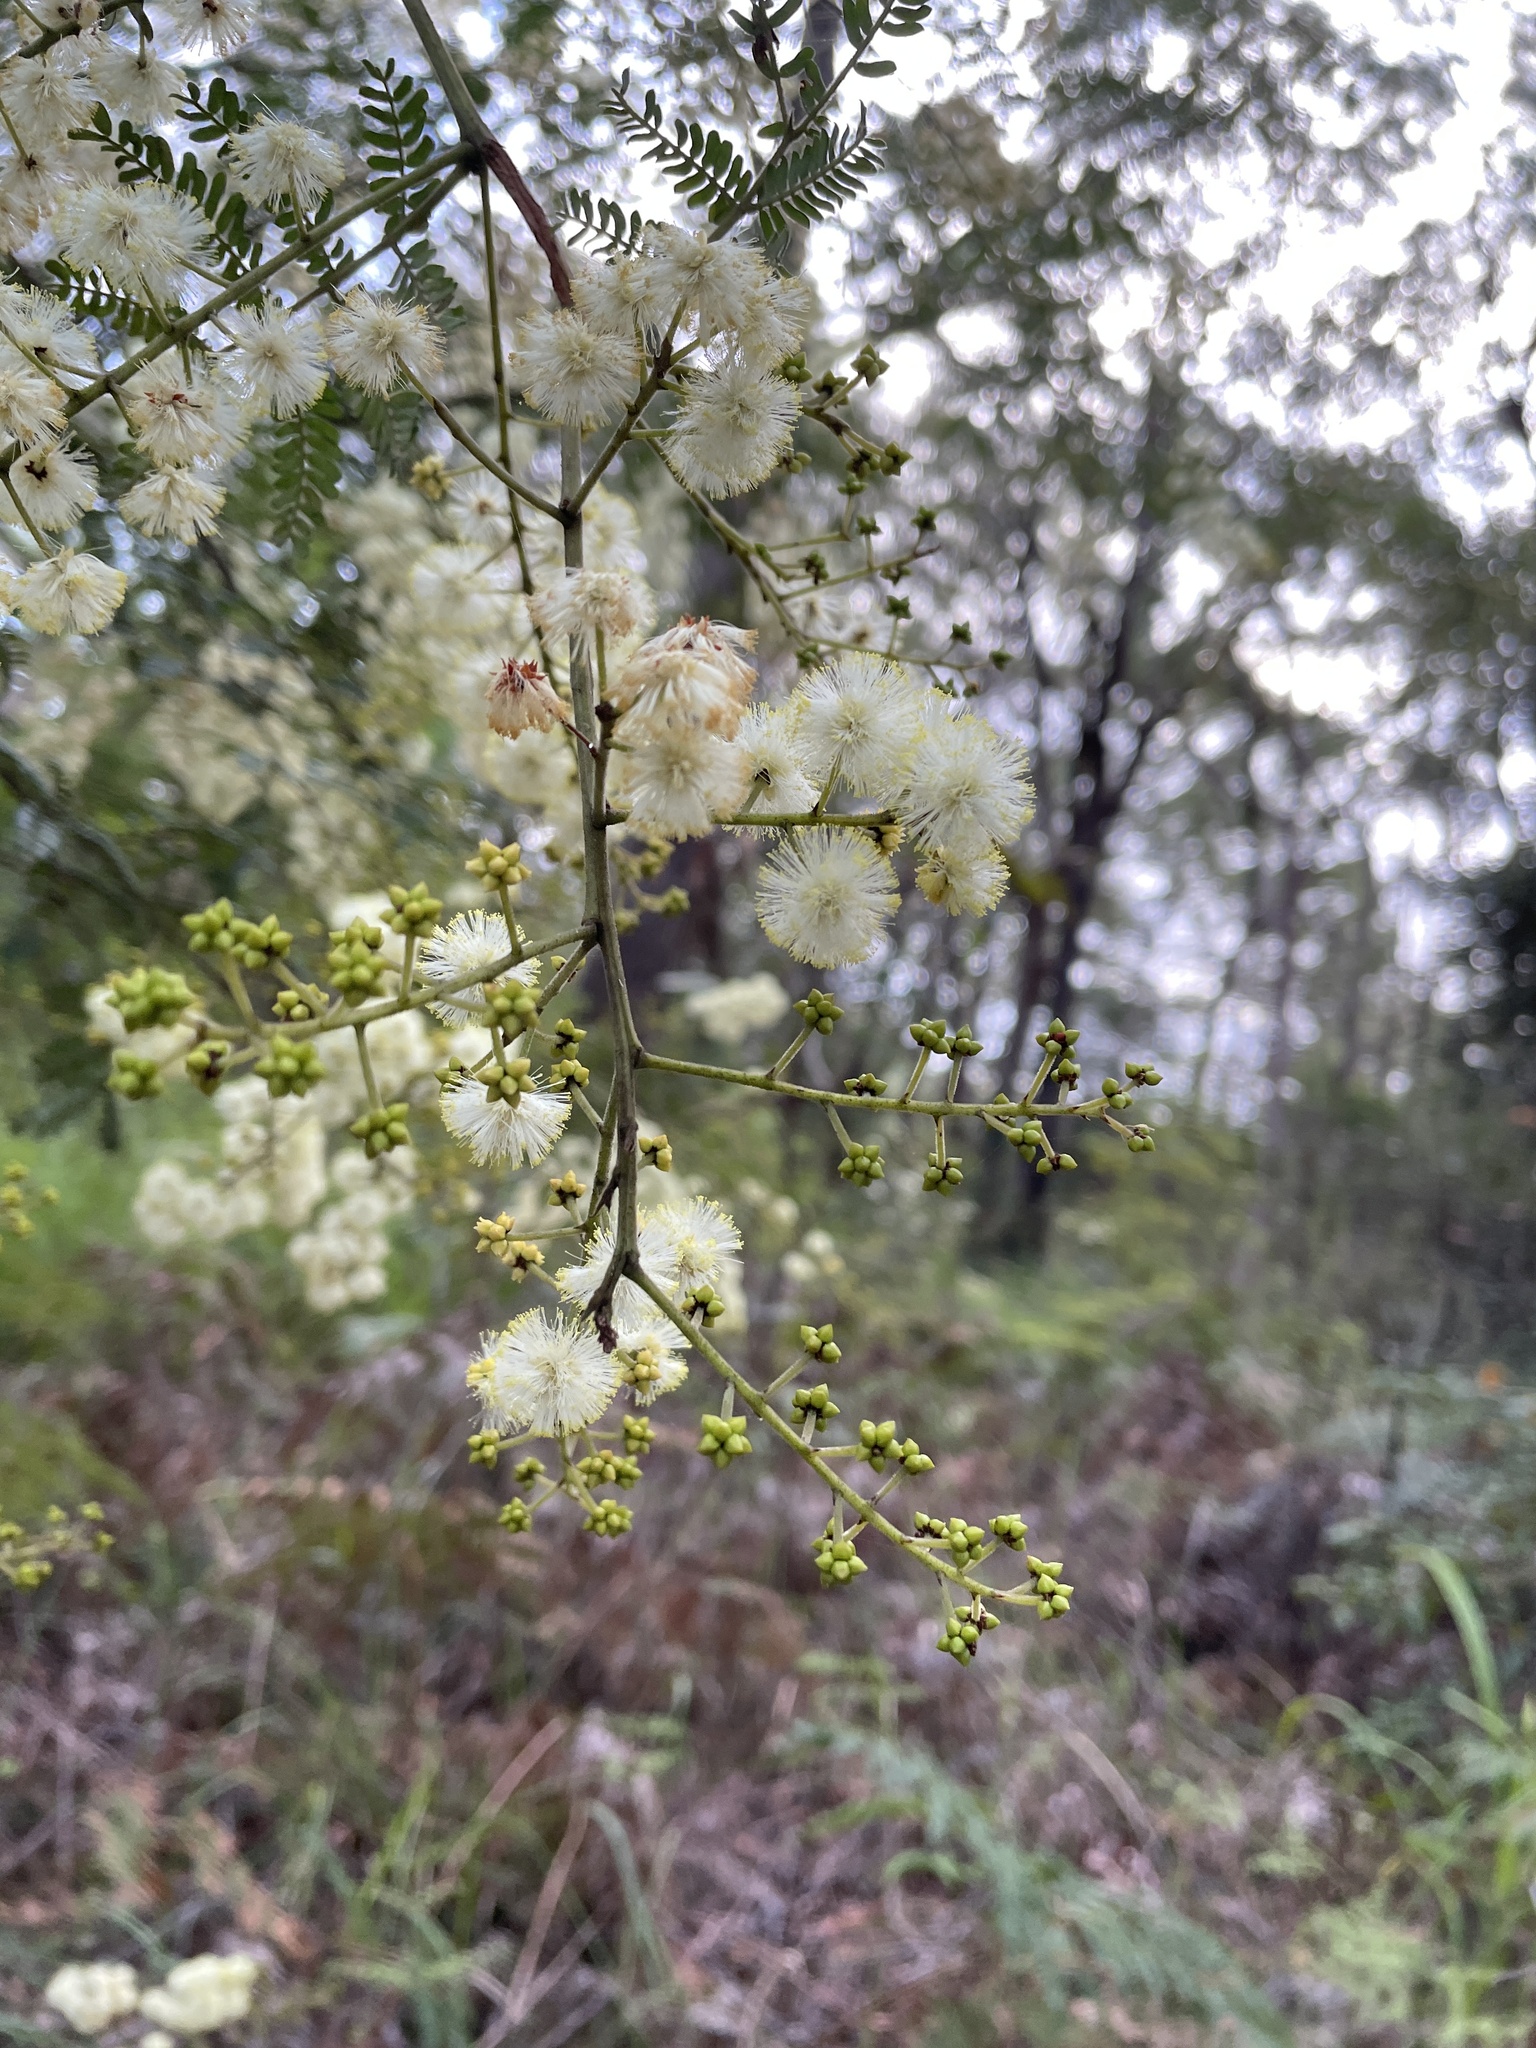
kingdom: Plantae
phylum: Tracheophyta
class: Magnoliopsida
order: Fabales
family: Fabaceae
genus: Acacia
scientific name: Acacia terminalis
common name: Cedar wattle
